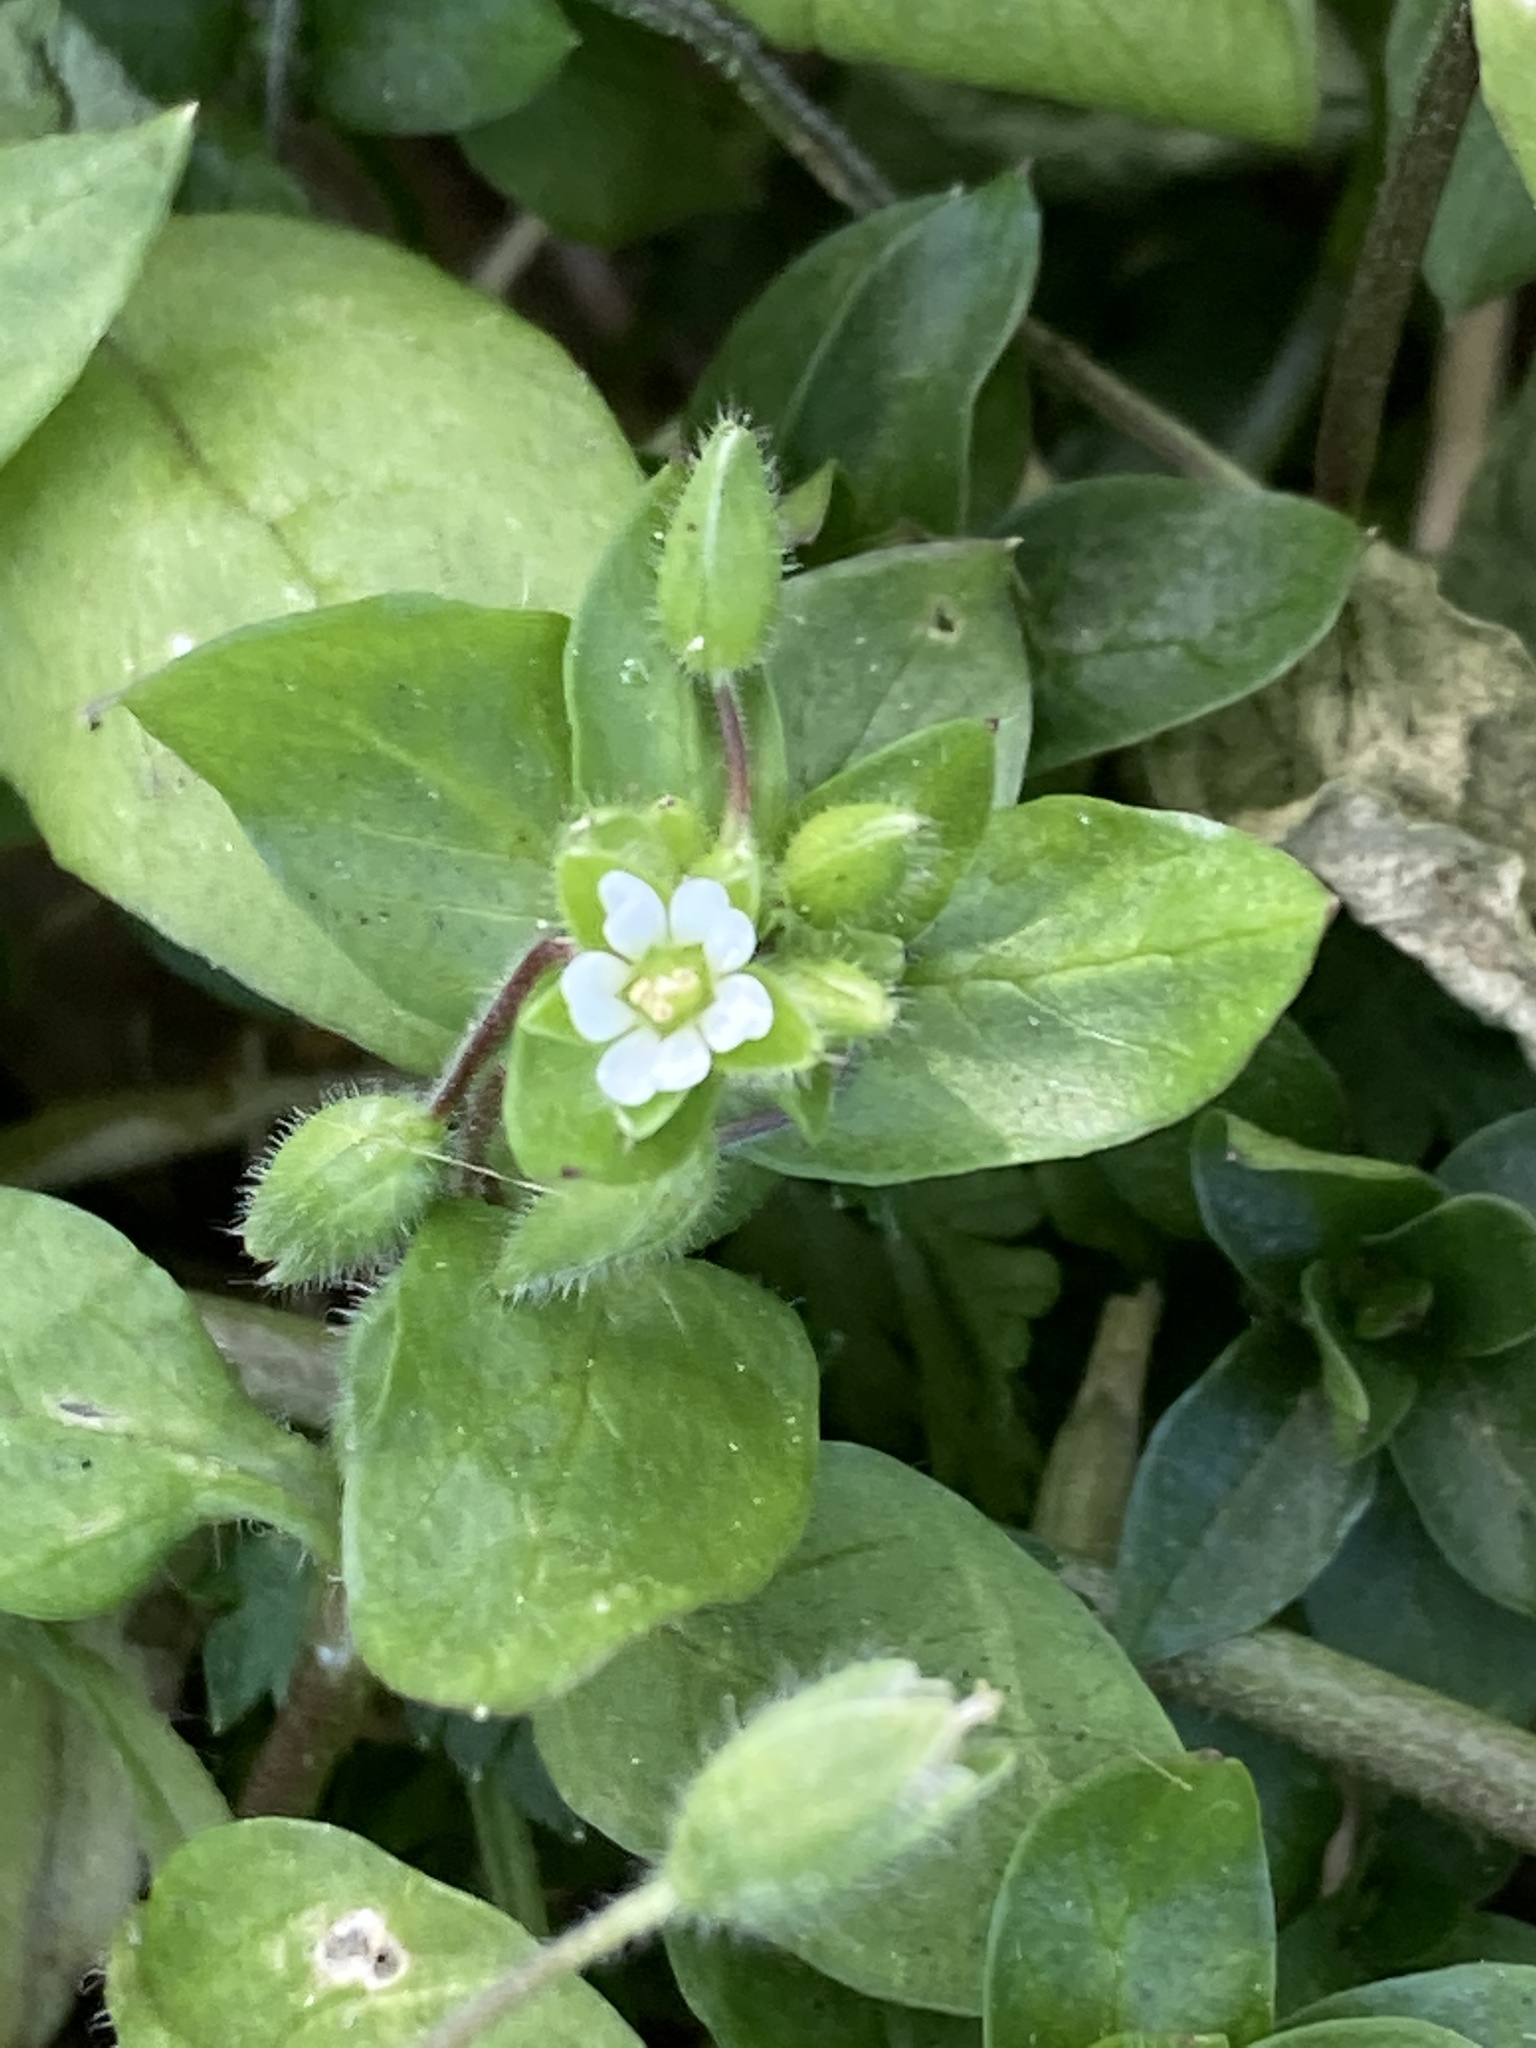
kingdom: Plantae
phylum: Tracheophyta
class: Magnoliopsida
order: Caryophyllales
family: Caryophyllaceae
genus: Stellaria
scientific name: Stellaria media
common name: Common chickweed
